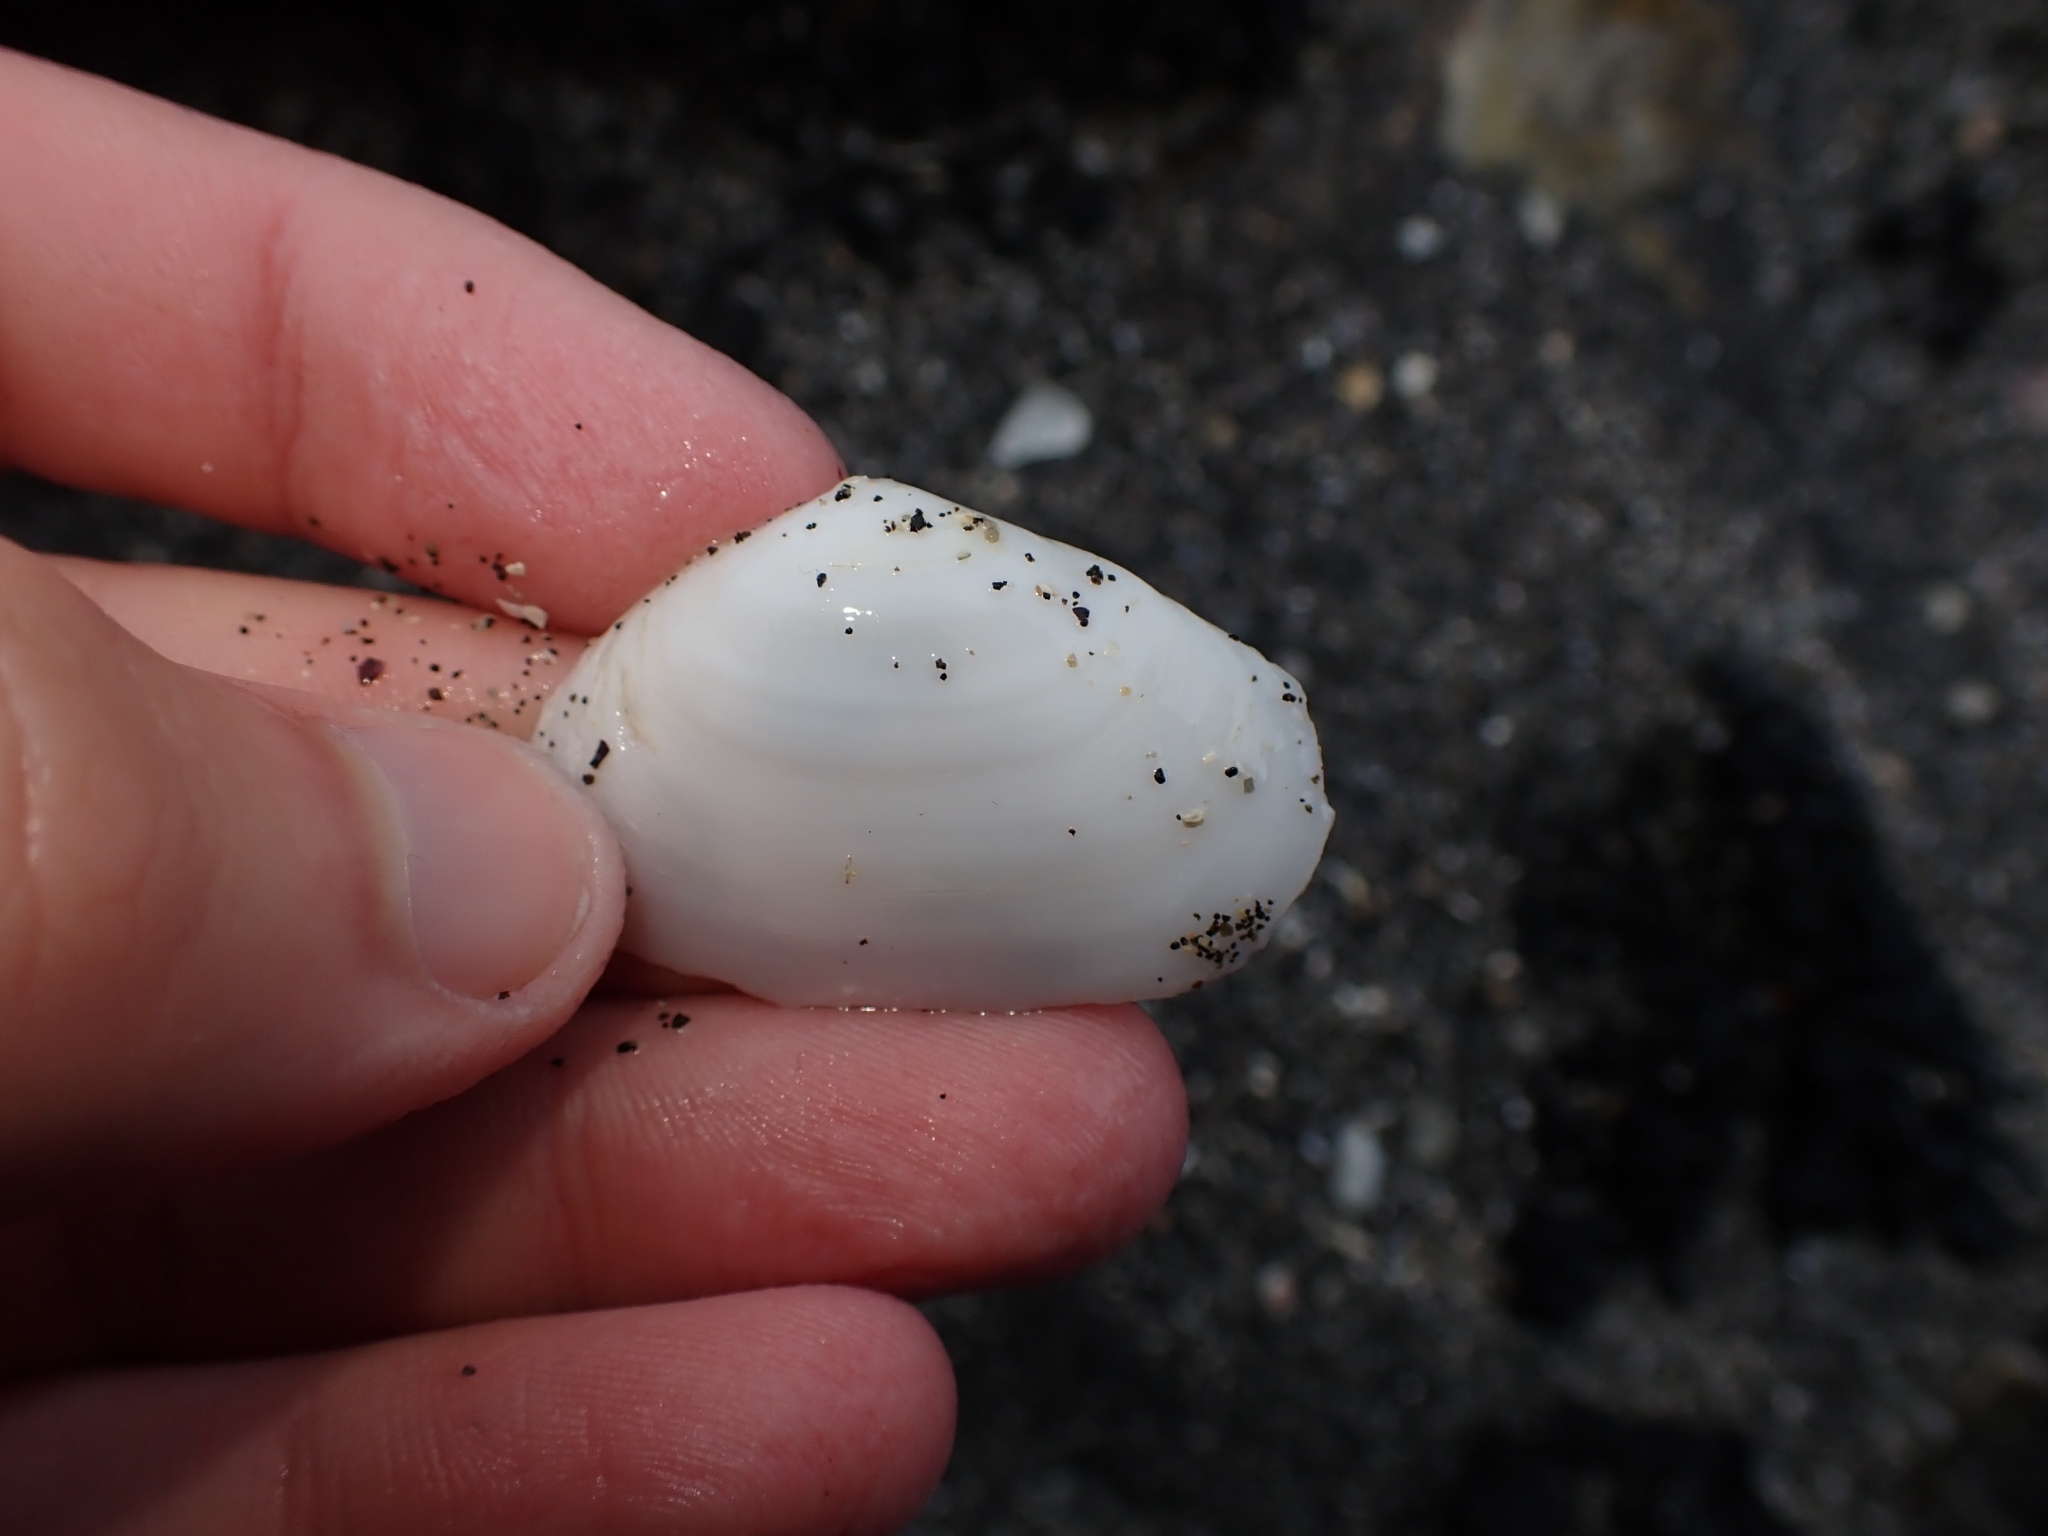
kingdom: Animalia
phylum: Mollusca
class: Bivalvia
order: Venerida
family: Mesodesmatidae
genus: Paphies
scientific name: Paphies australis
